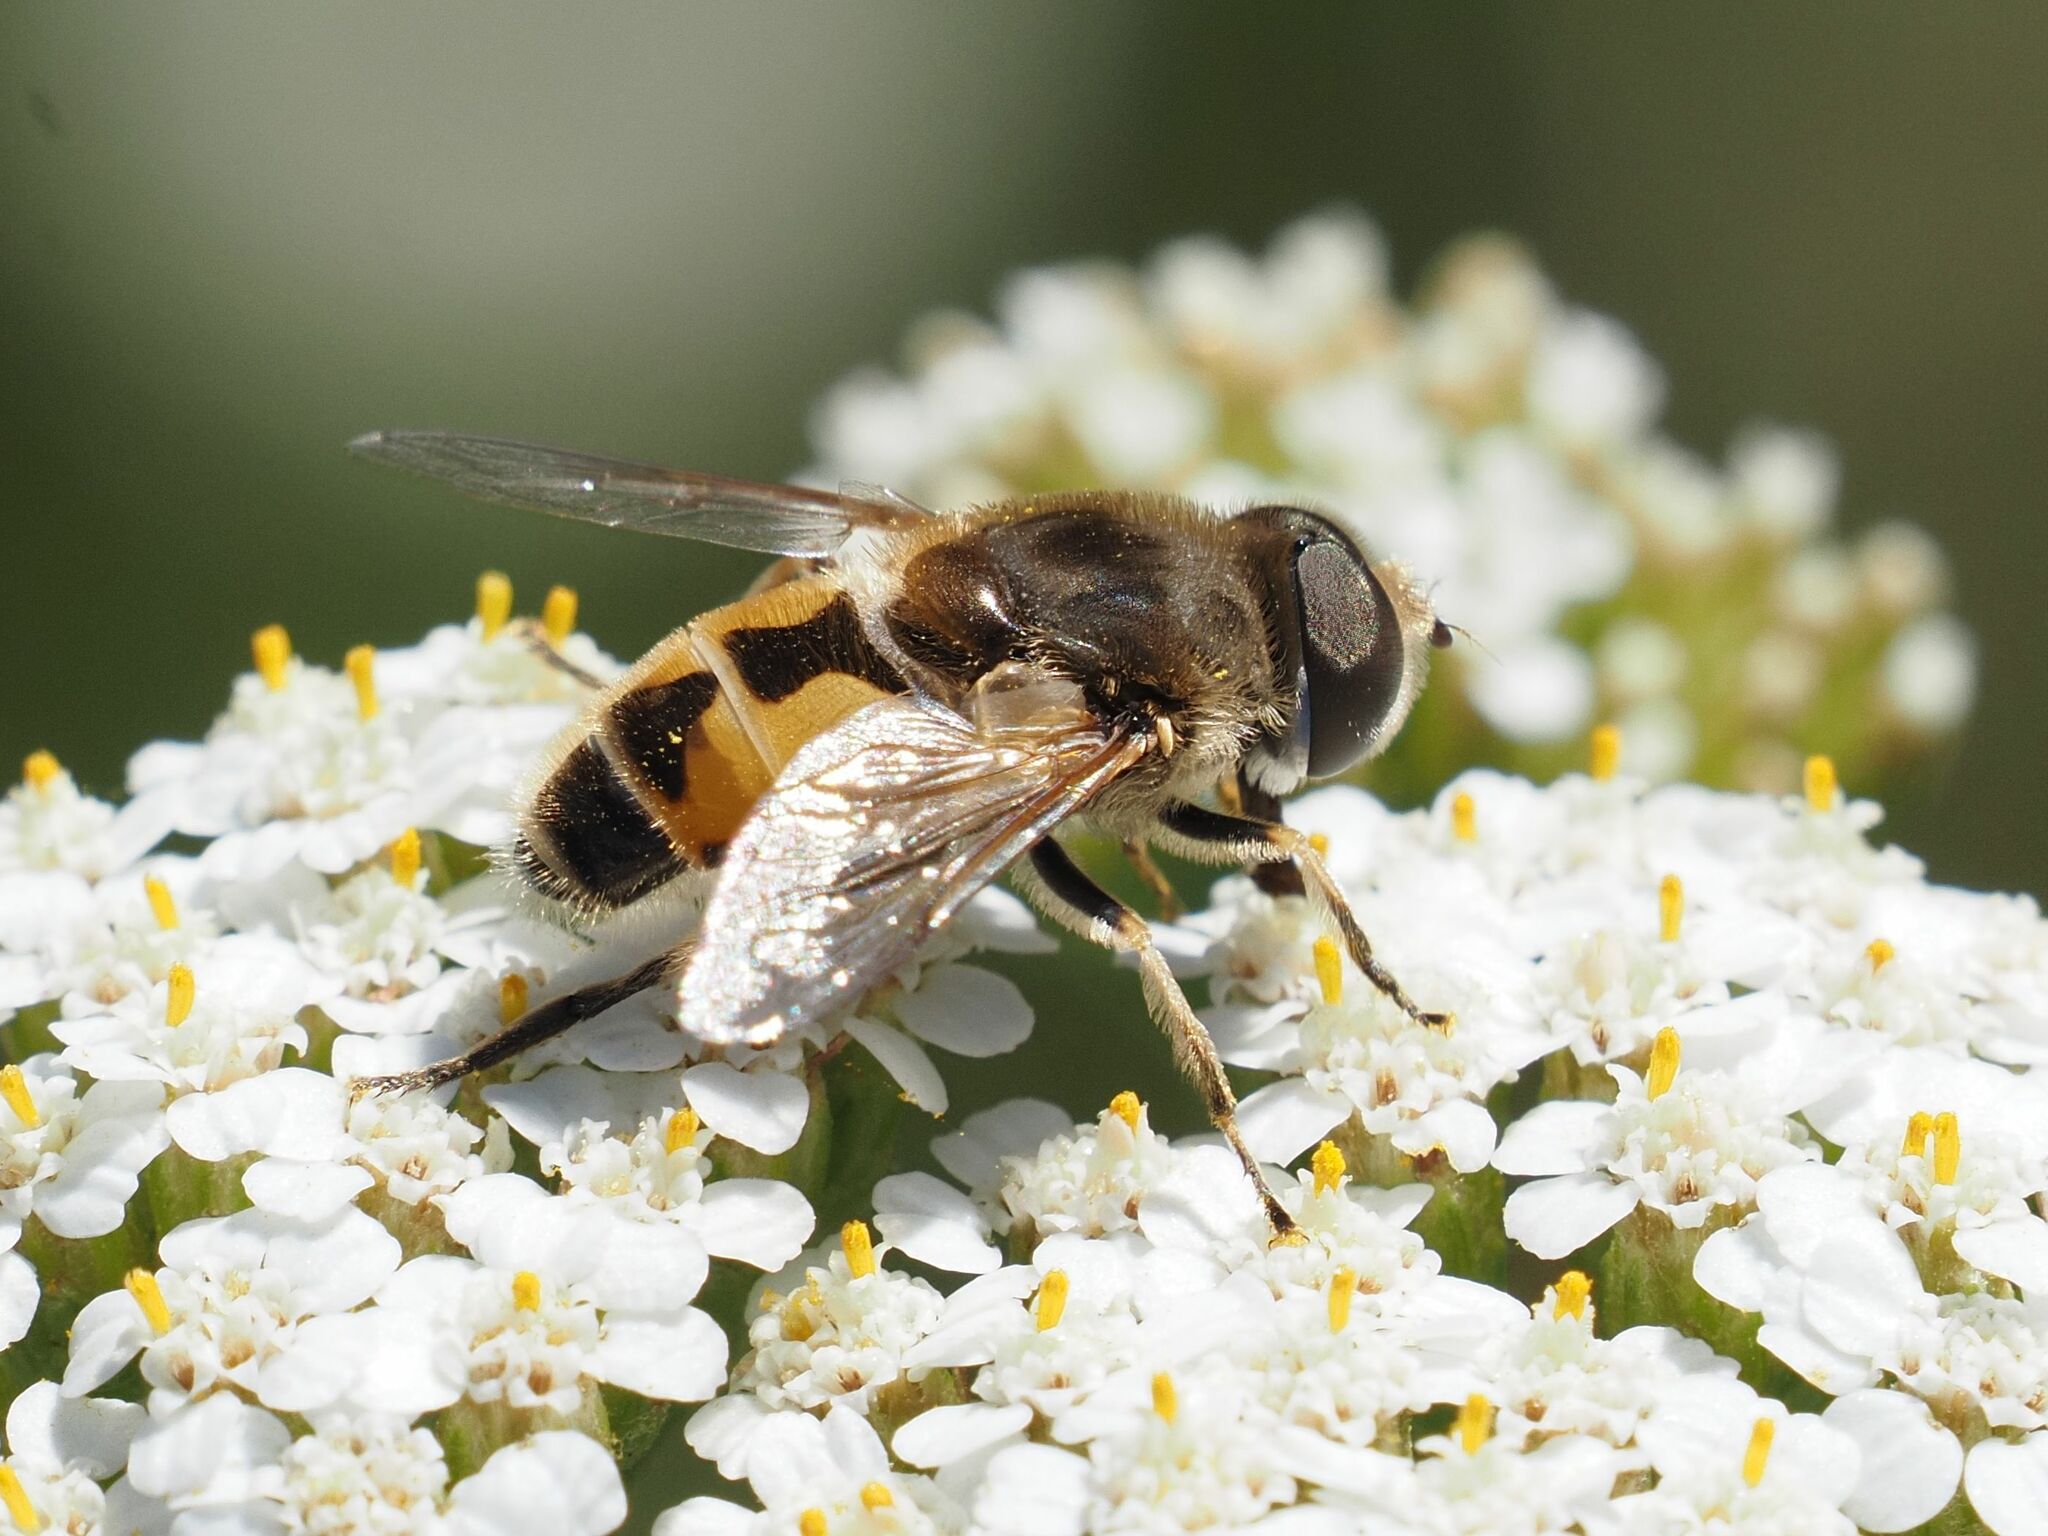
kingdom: Animalia
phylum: Arthropoda
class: Insecta
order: Diptera
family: Syrphidae
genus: Eristalis
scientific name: Eristalis arbustorum
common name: Hover fly
